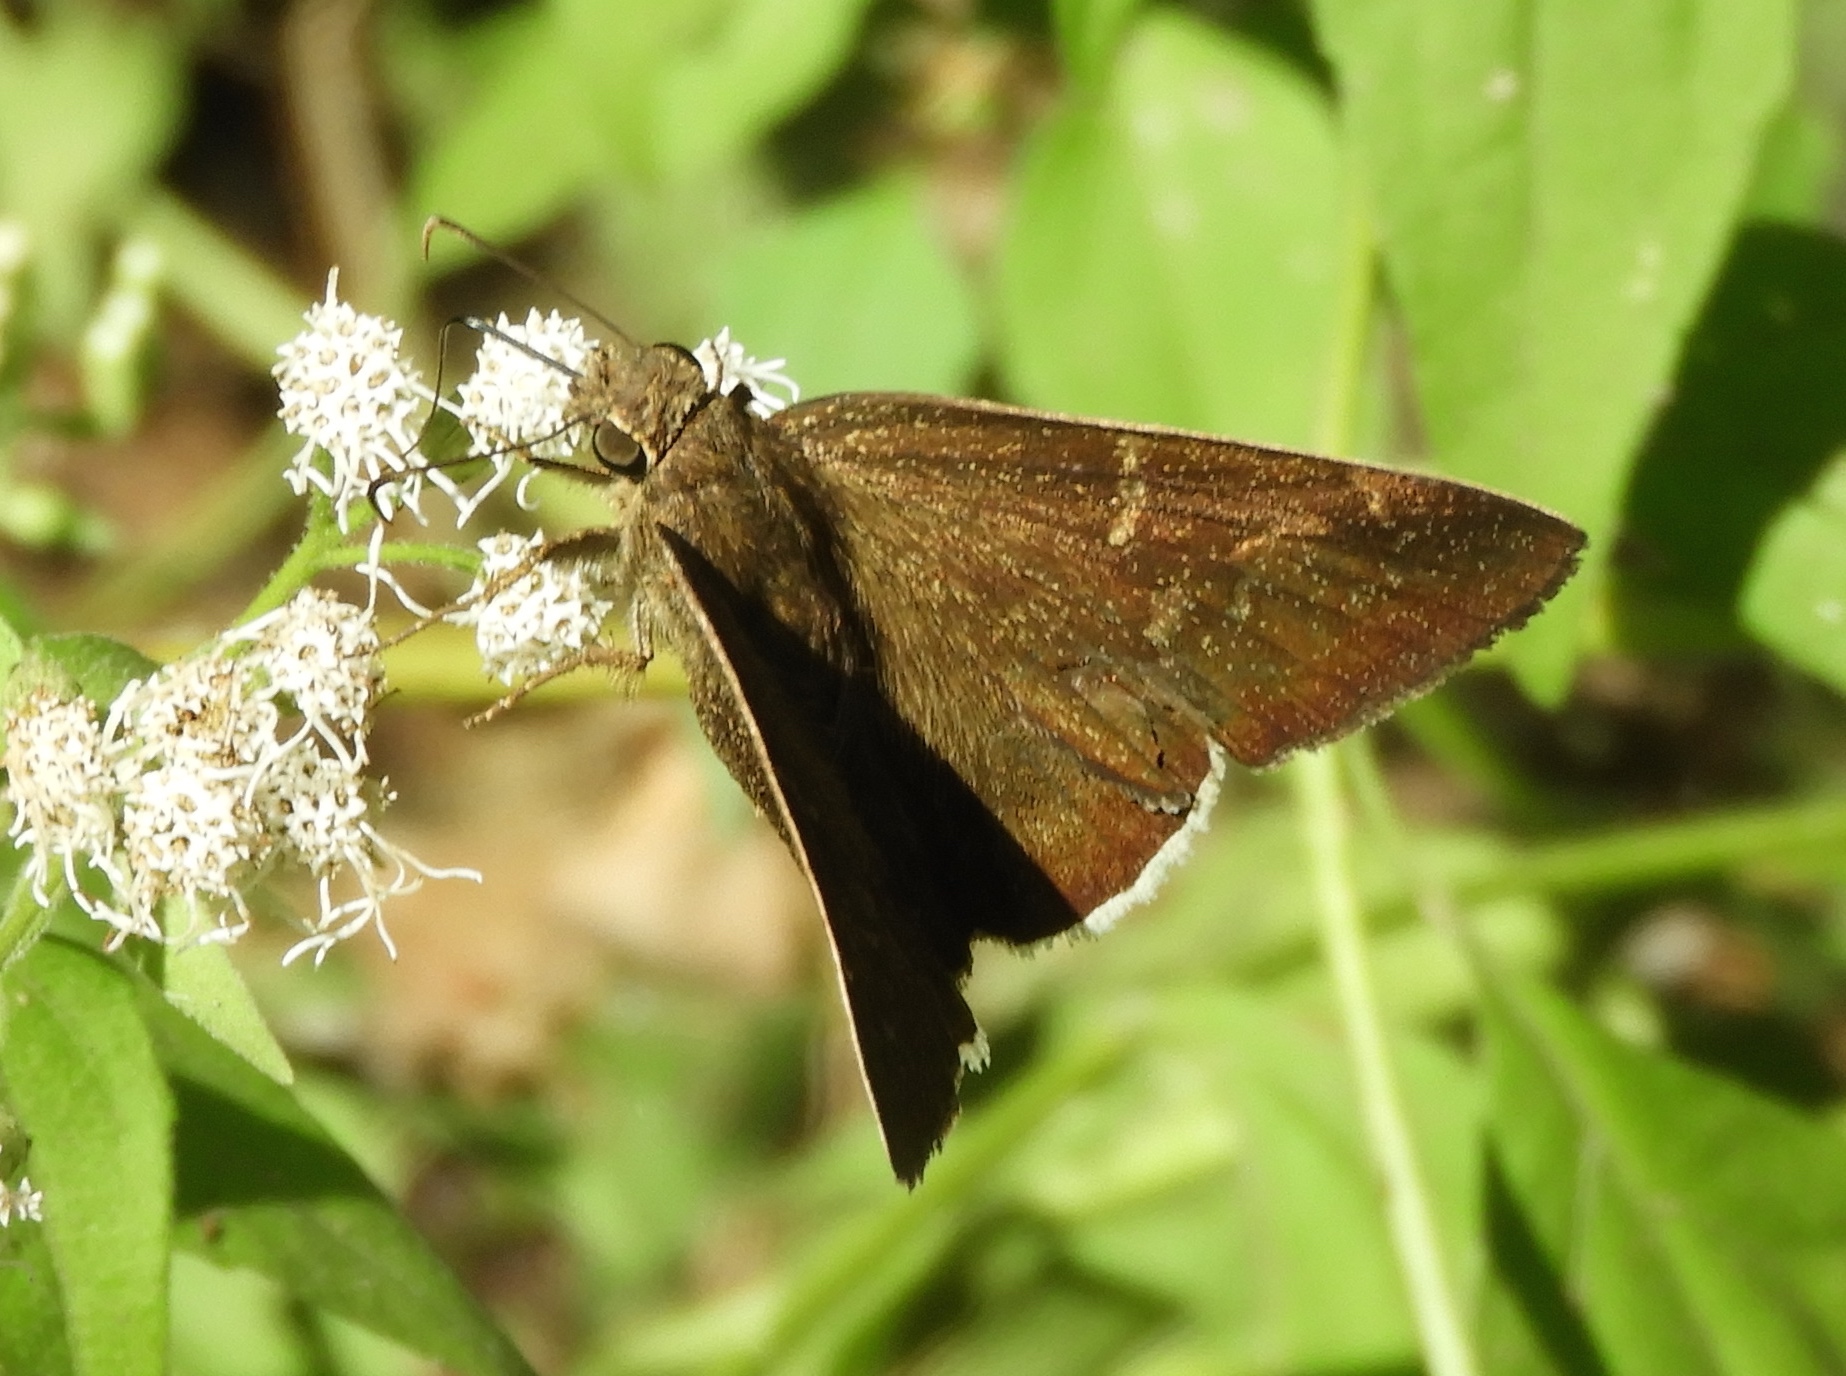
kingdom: Animalia
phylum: Arthropoda
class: Insecta
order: Lepidoptera
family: Hesperiidae
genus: Achalarus
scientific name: Achalarus Murgaria albociliatus
